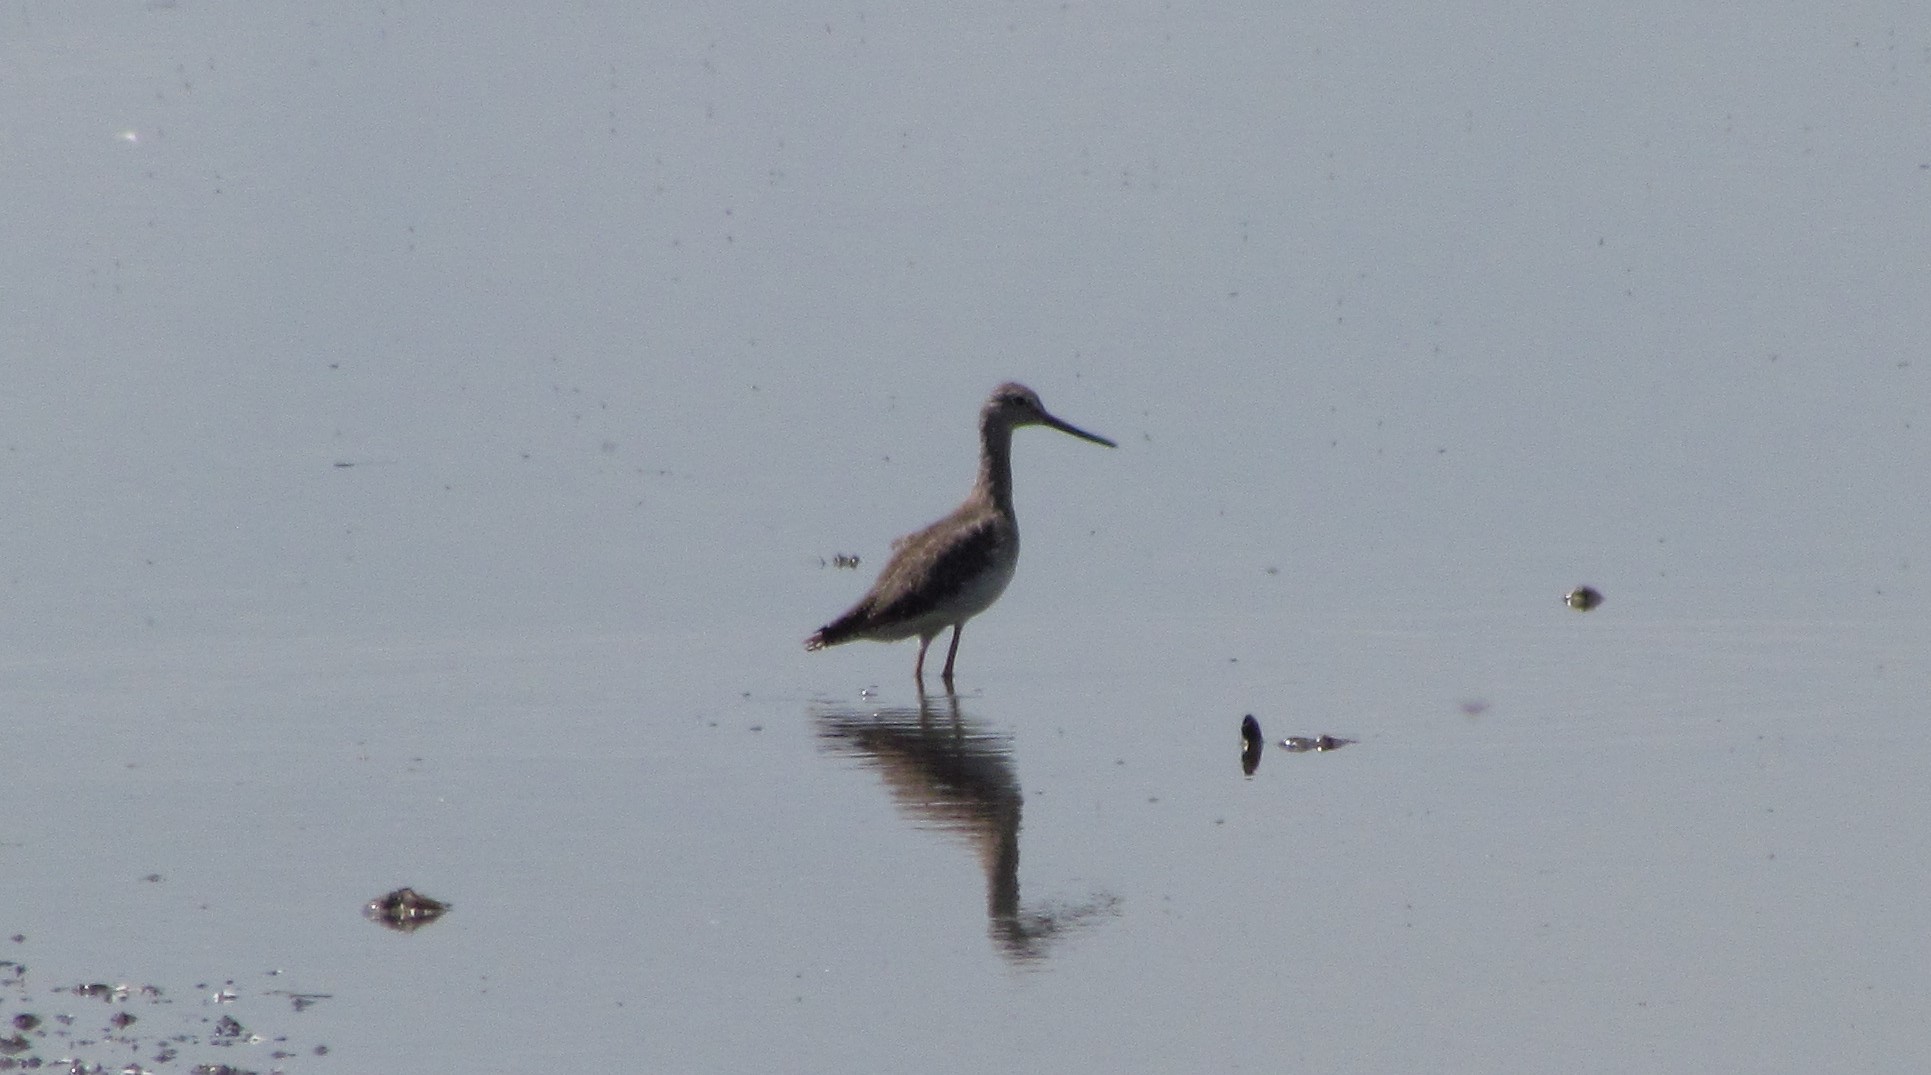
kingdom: Animalia
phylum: Chordata
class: Aves
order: Charadriiformes
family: Scolopacidae
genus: Tringa
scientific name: Tringa melanoleuca
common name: Greater yellowlegs
